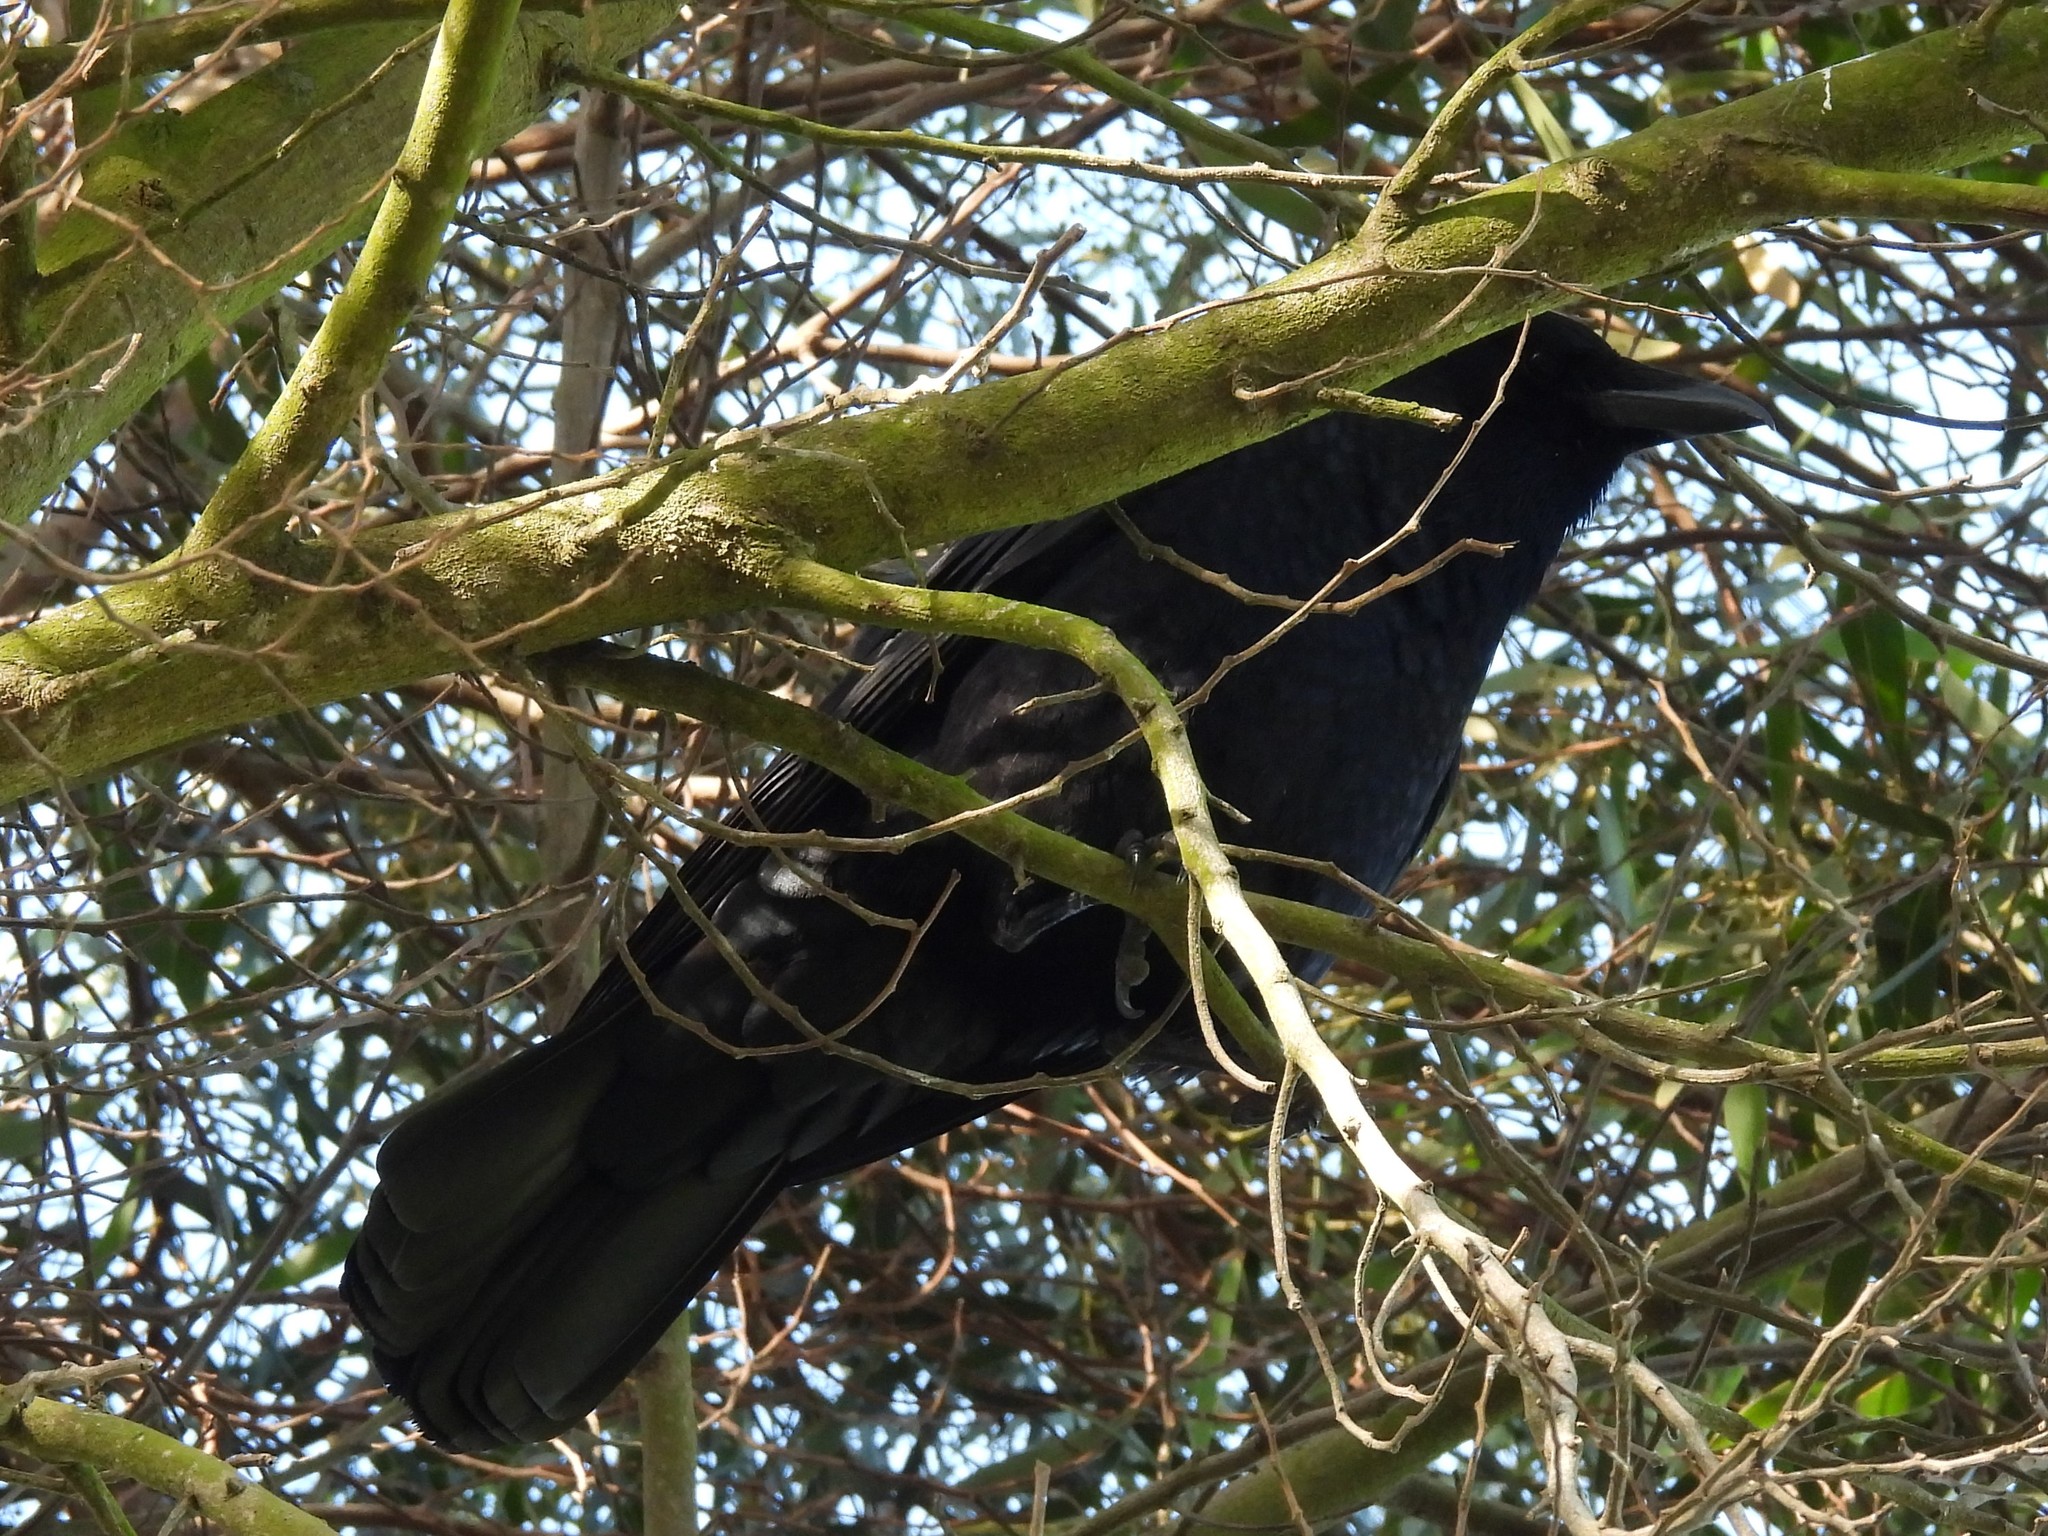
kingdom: Animalia
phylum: Chordata
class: Aves
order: Passeriformes
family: Corvidae
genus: Corvus
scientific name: Corvus brachyrhynchos
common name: American crow
